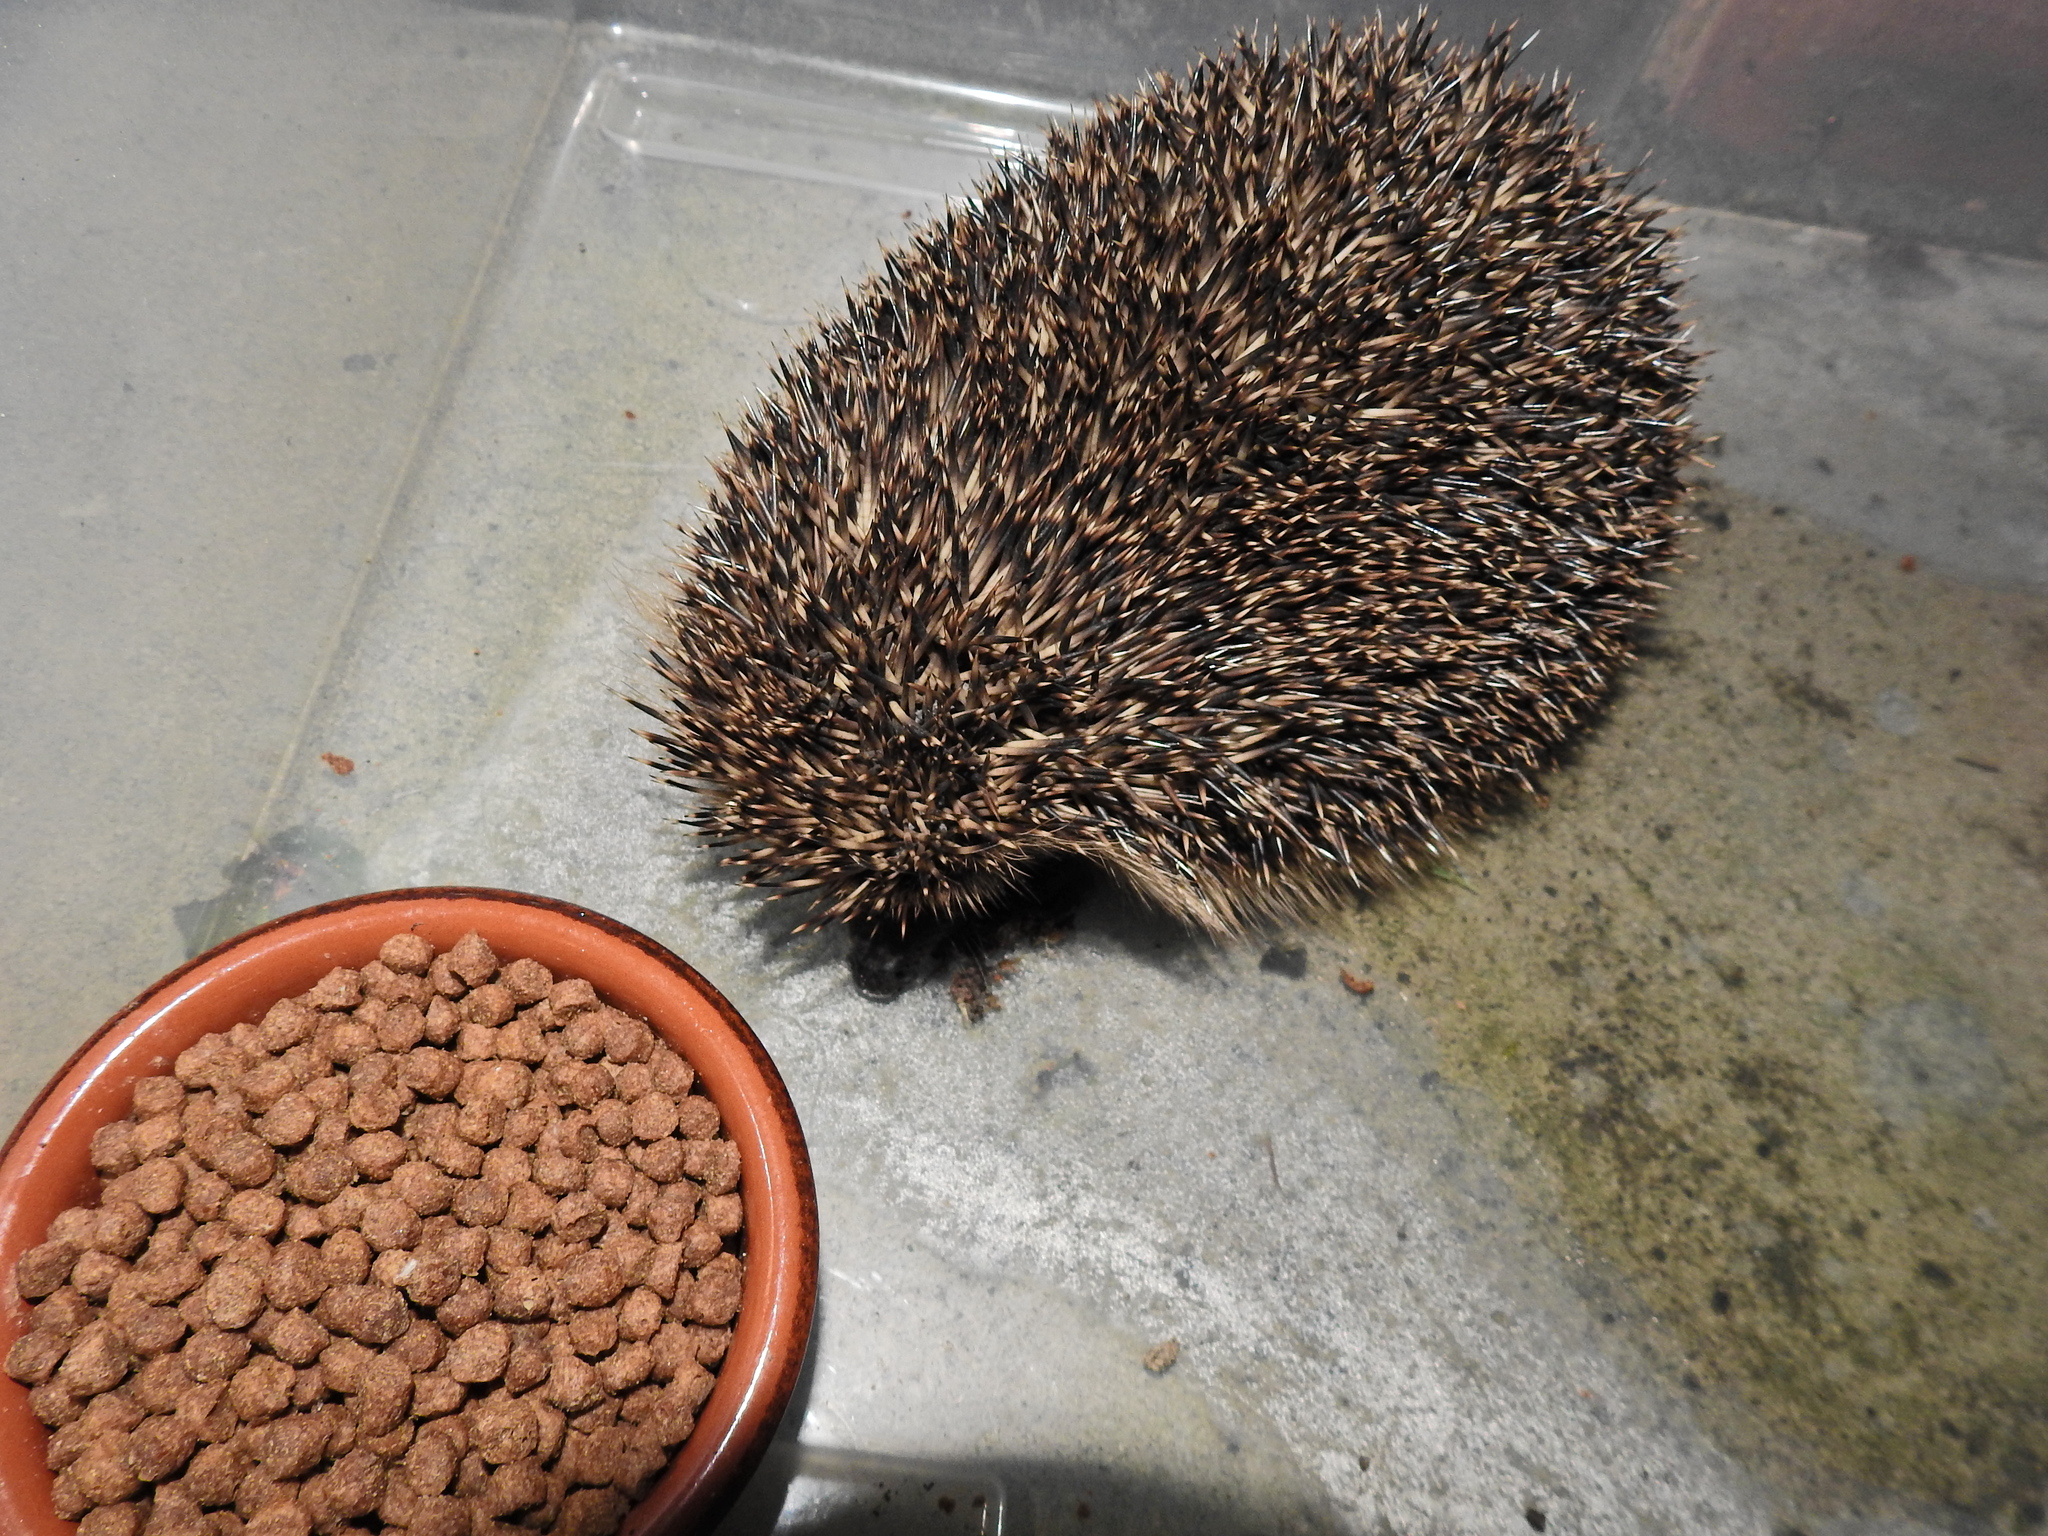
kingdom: Animalia
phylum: Chordata
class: Mammalia
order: Erinaceomorpha
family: Erinaceidae
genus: Erinaceus
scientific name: Erinaceus europaeus
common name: West european hedgehog
